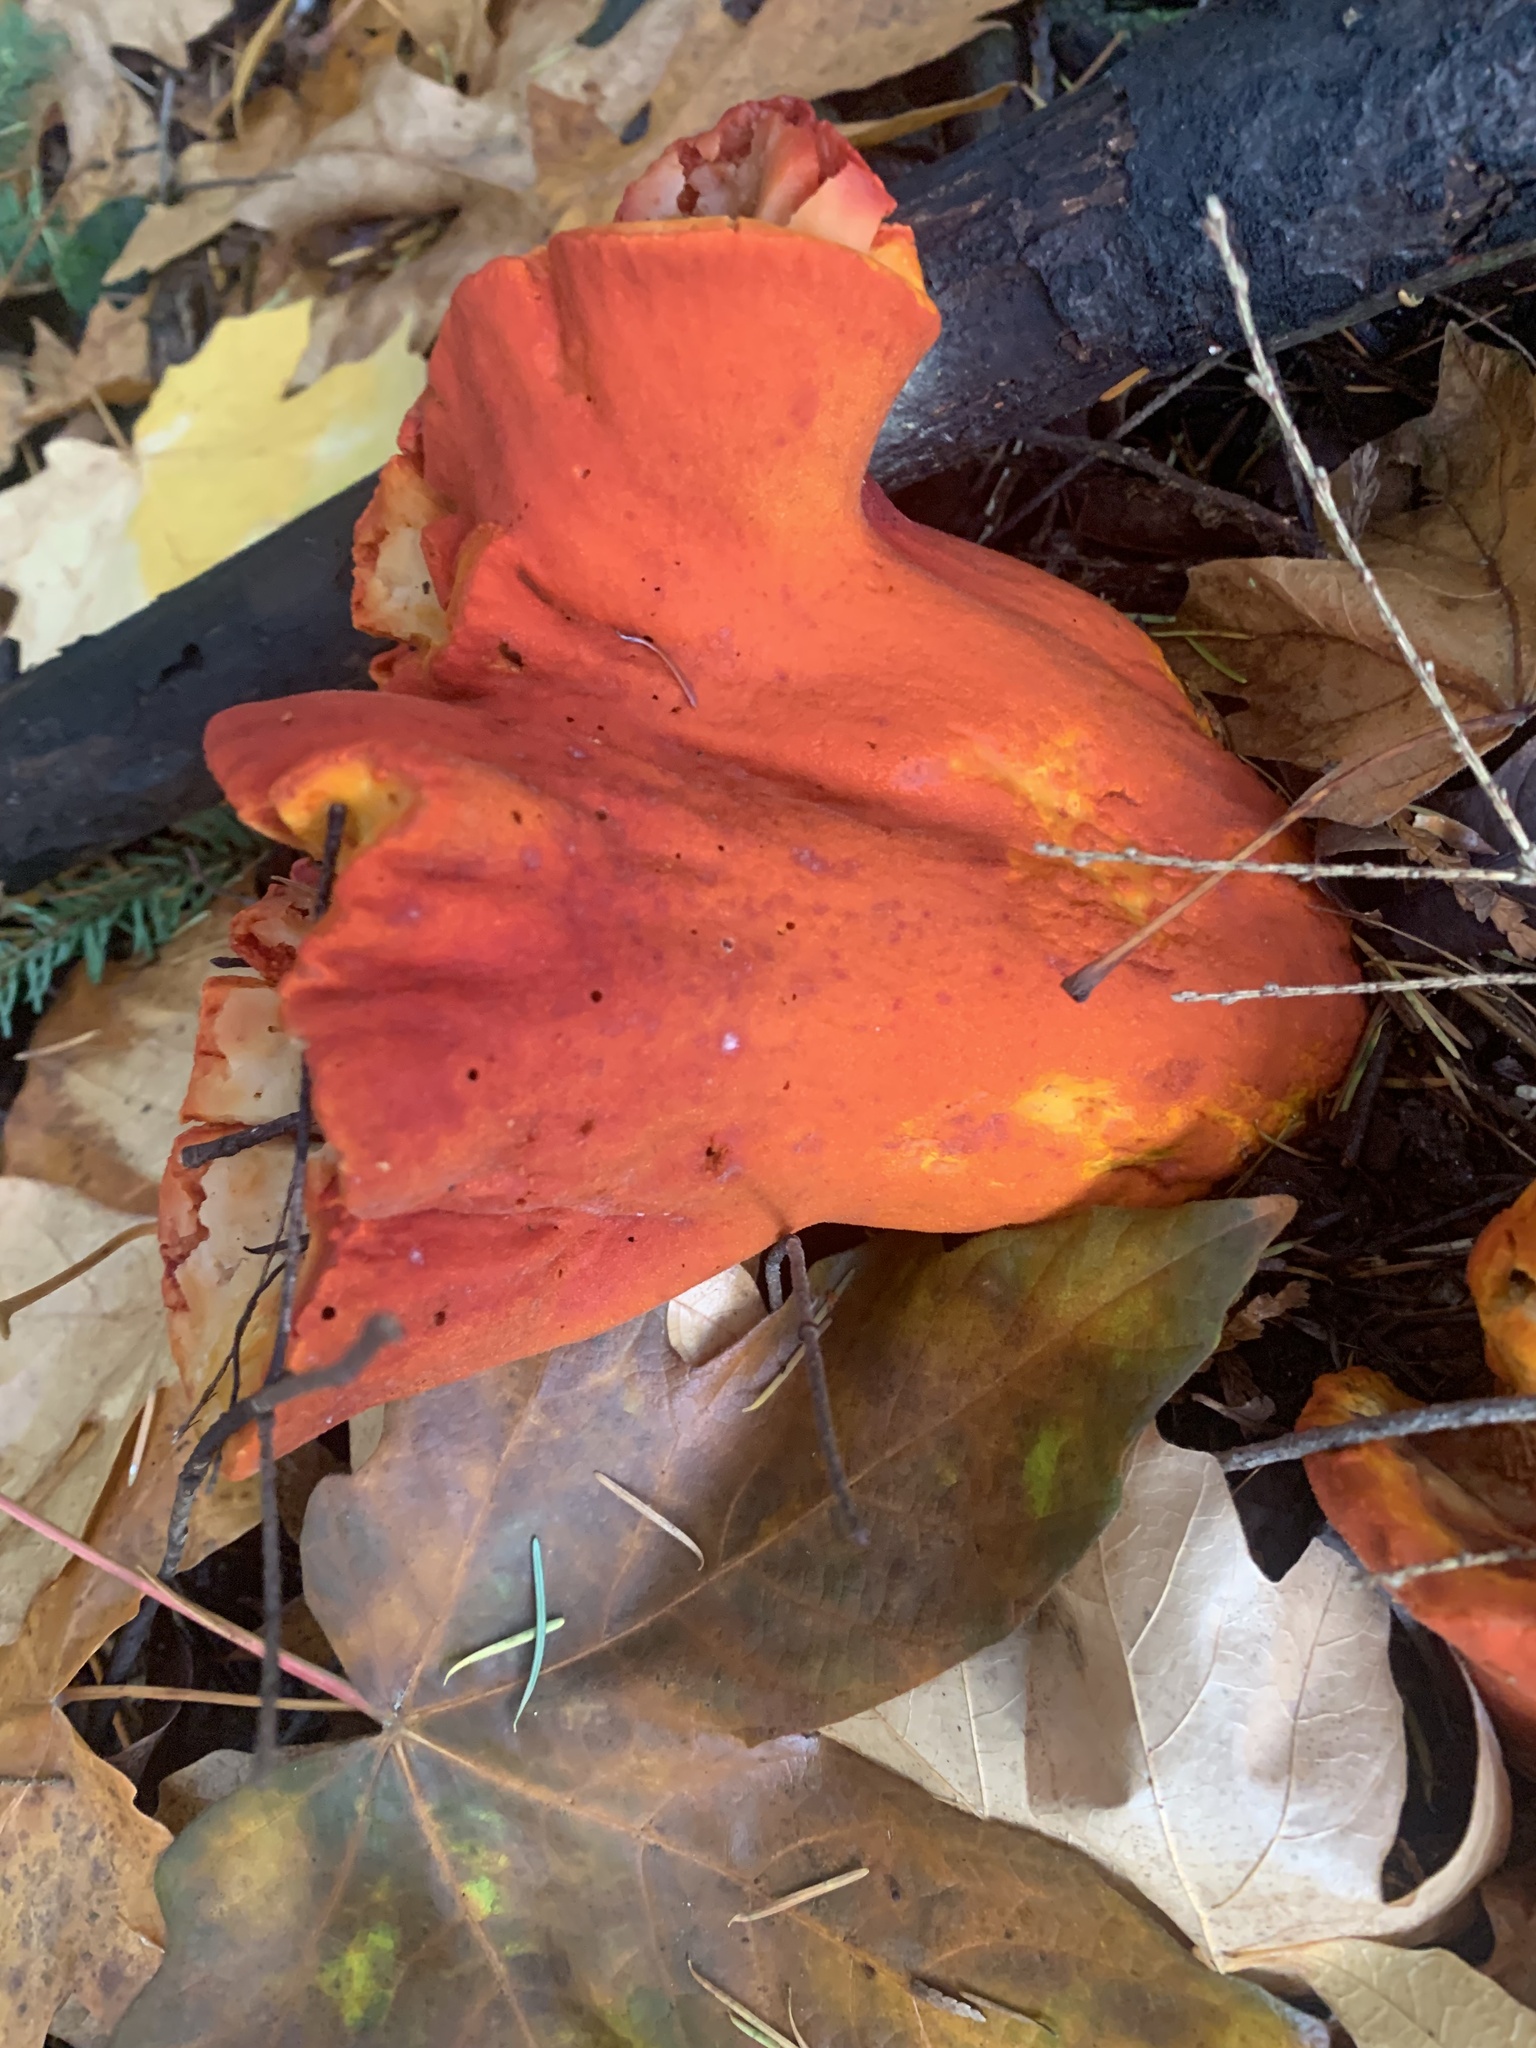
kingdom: Fungi
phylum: Ascomycota
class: Sordariomycetes
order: Hypocreales
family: Hypocreaceae
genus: Hypomyces
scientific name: Hypomyces lactifluorum
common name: Lobster mushroom
